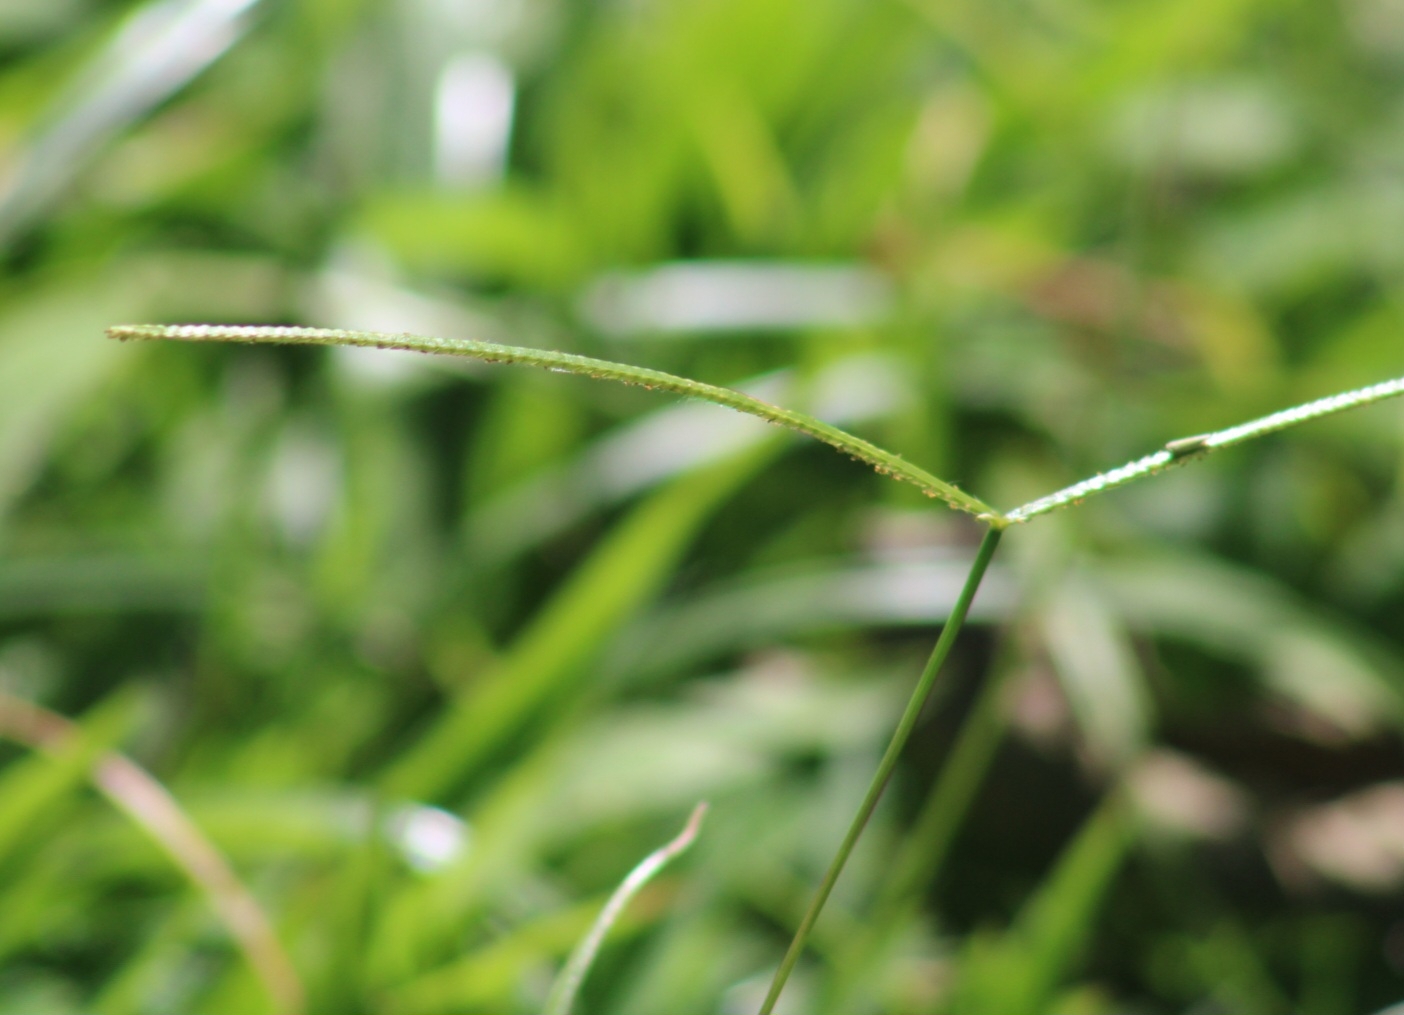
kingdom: Plantae
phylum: Tracheophyta
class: Liliopsida
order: Poales
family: Poaceae
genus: Paspalum
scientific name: Paspalum conjugatum
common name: Hilograss
